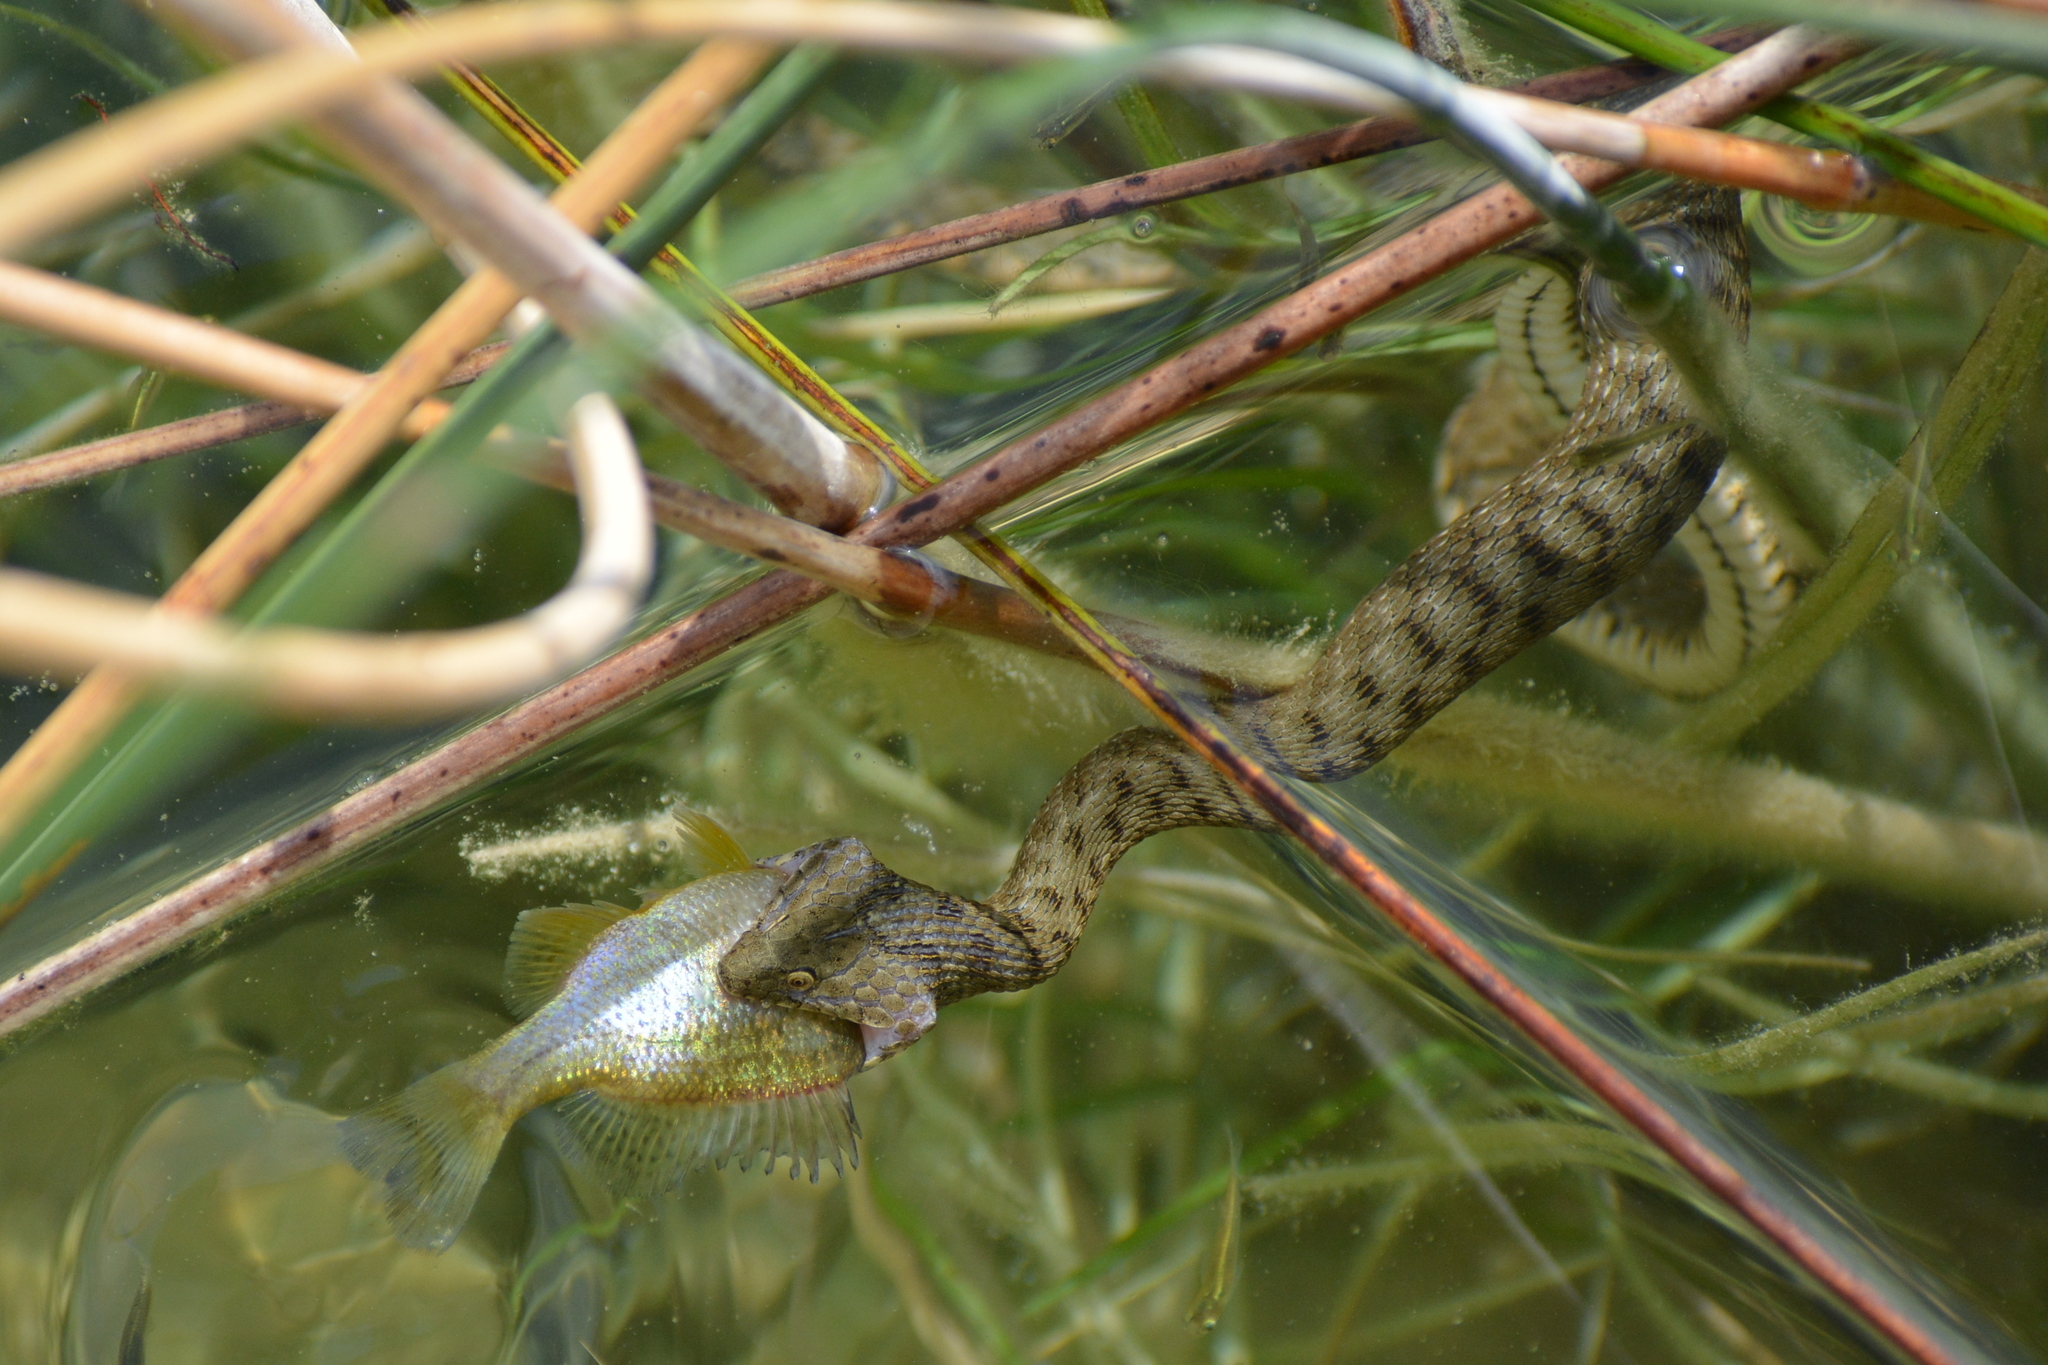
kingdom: Animalia
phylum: Chordata
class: Squamata
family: Colubridae
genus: Natrix
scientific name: Natrix tessellata
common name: Dice snake
